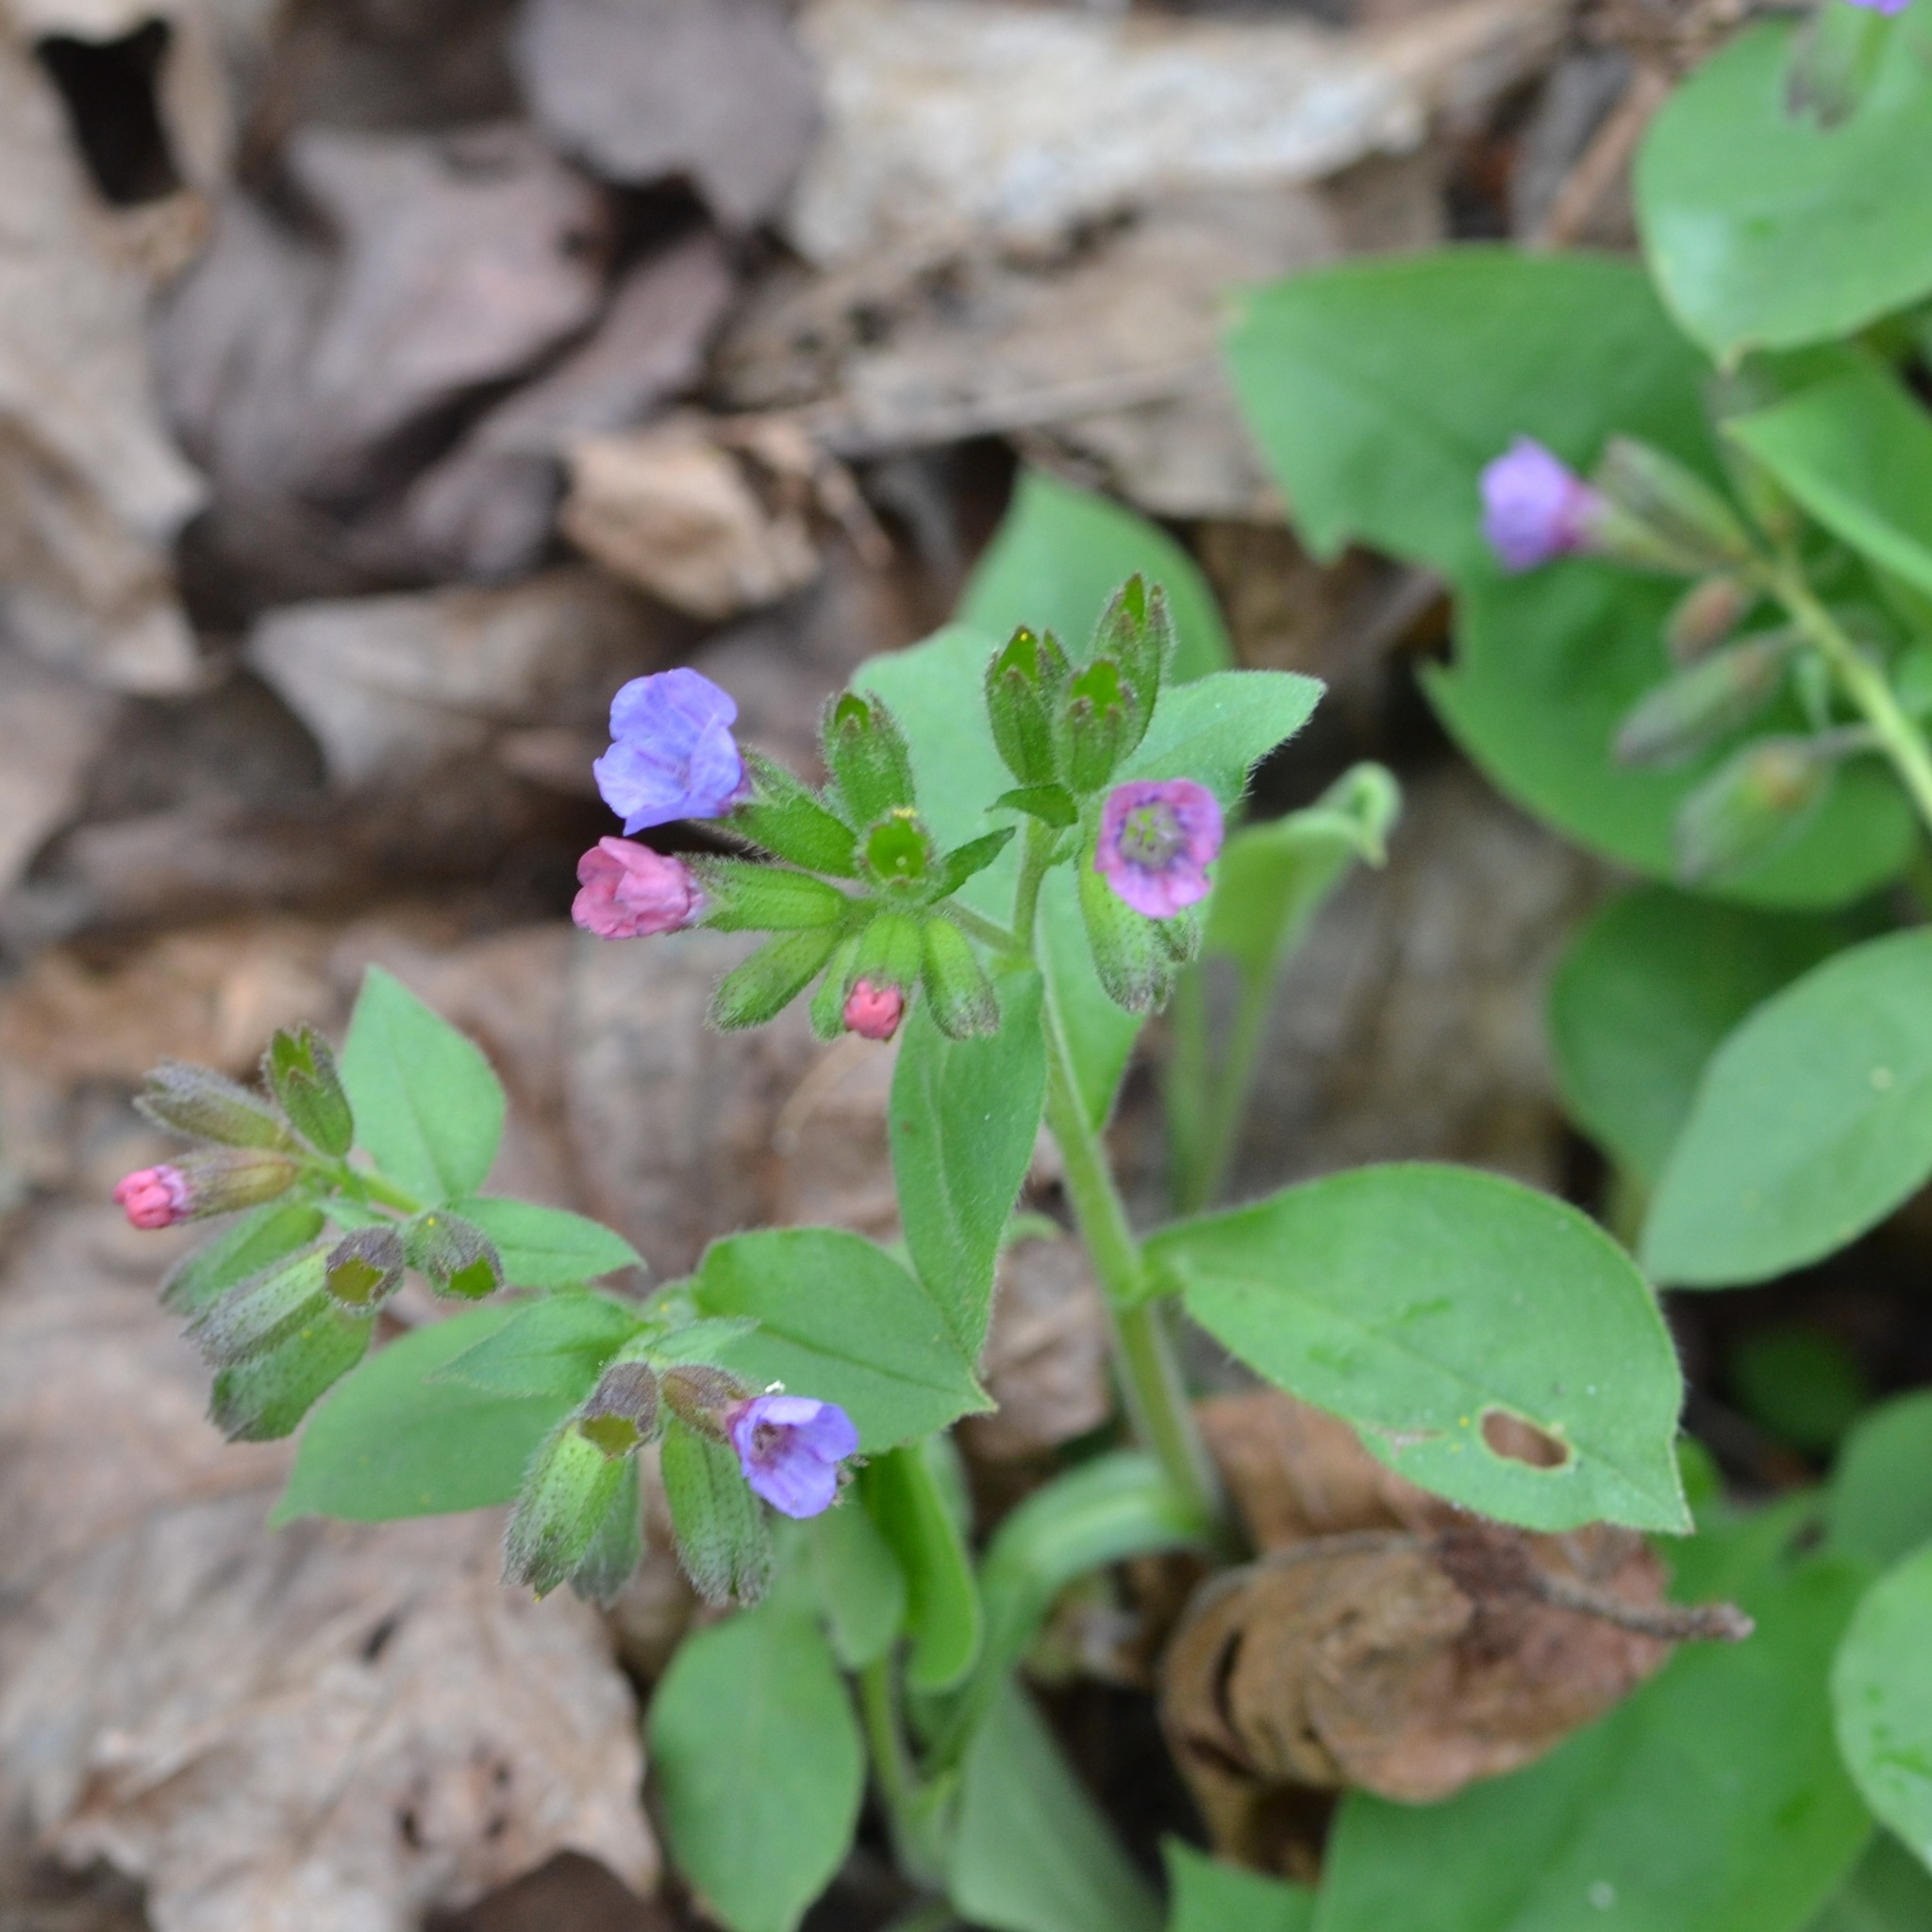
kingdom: Plantae
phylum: Tracheophyta
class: Magnoliopsida
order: Boraginales
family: Boraginaceae
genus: Pulmonaria
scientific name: Pulmonaria obscura
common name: Suffolk lungwort
